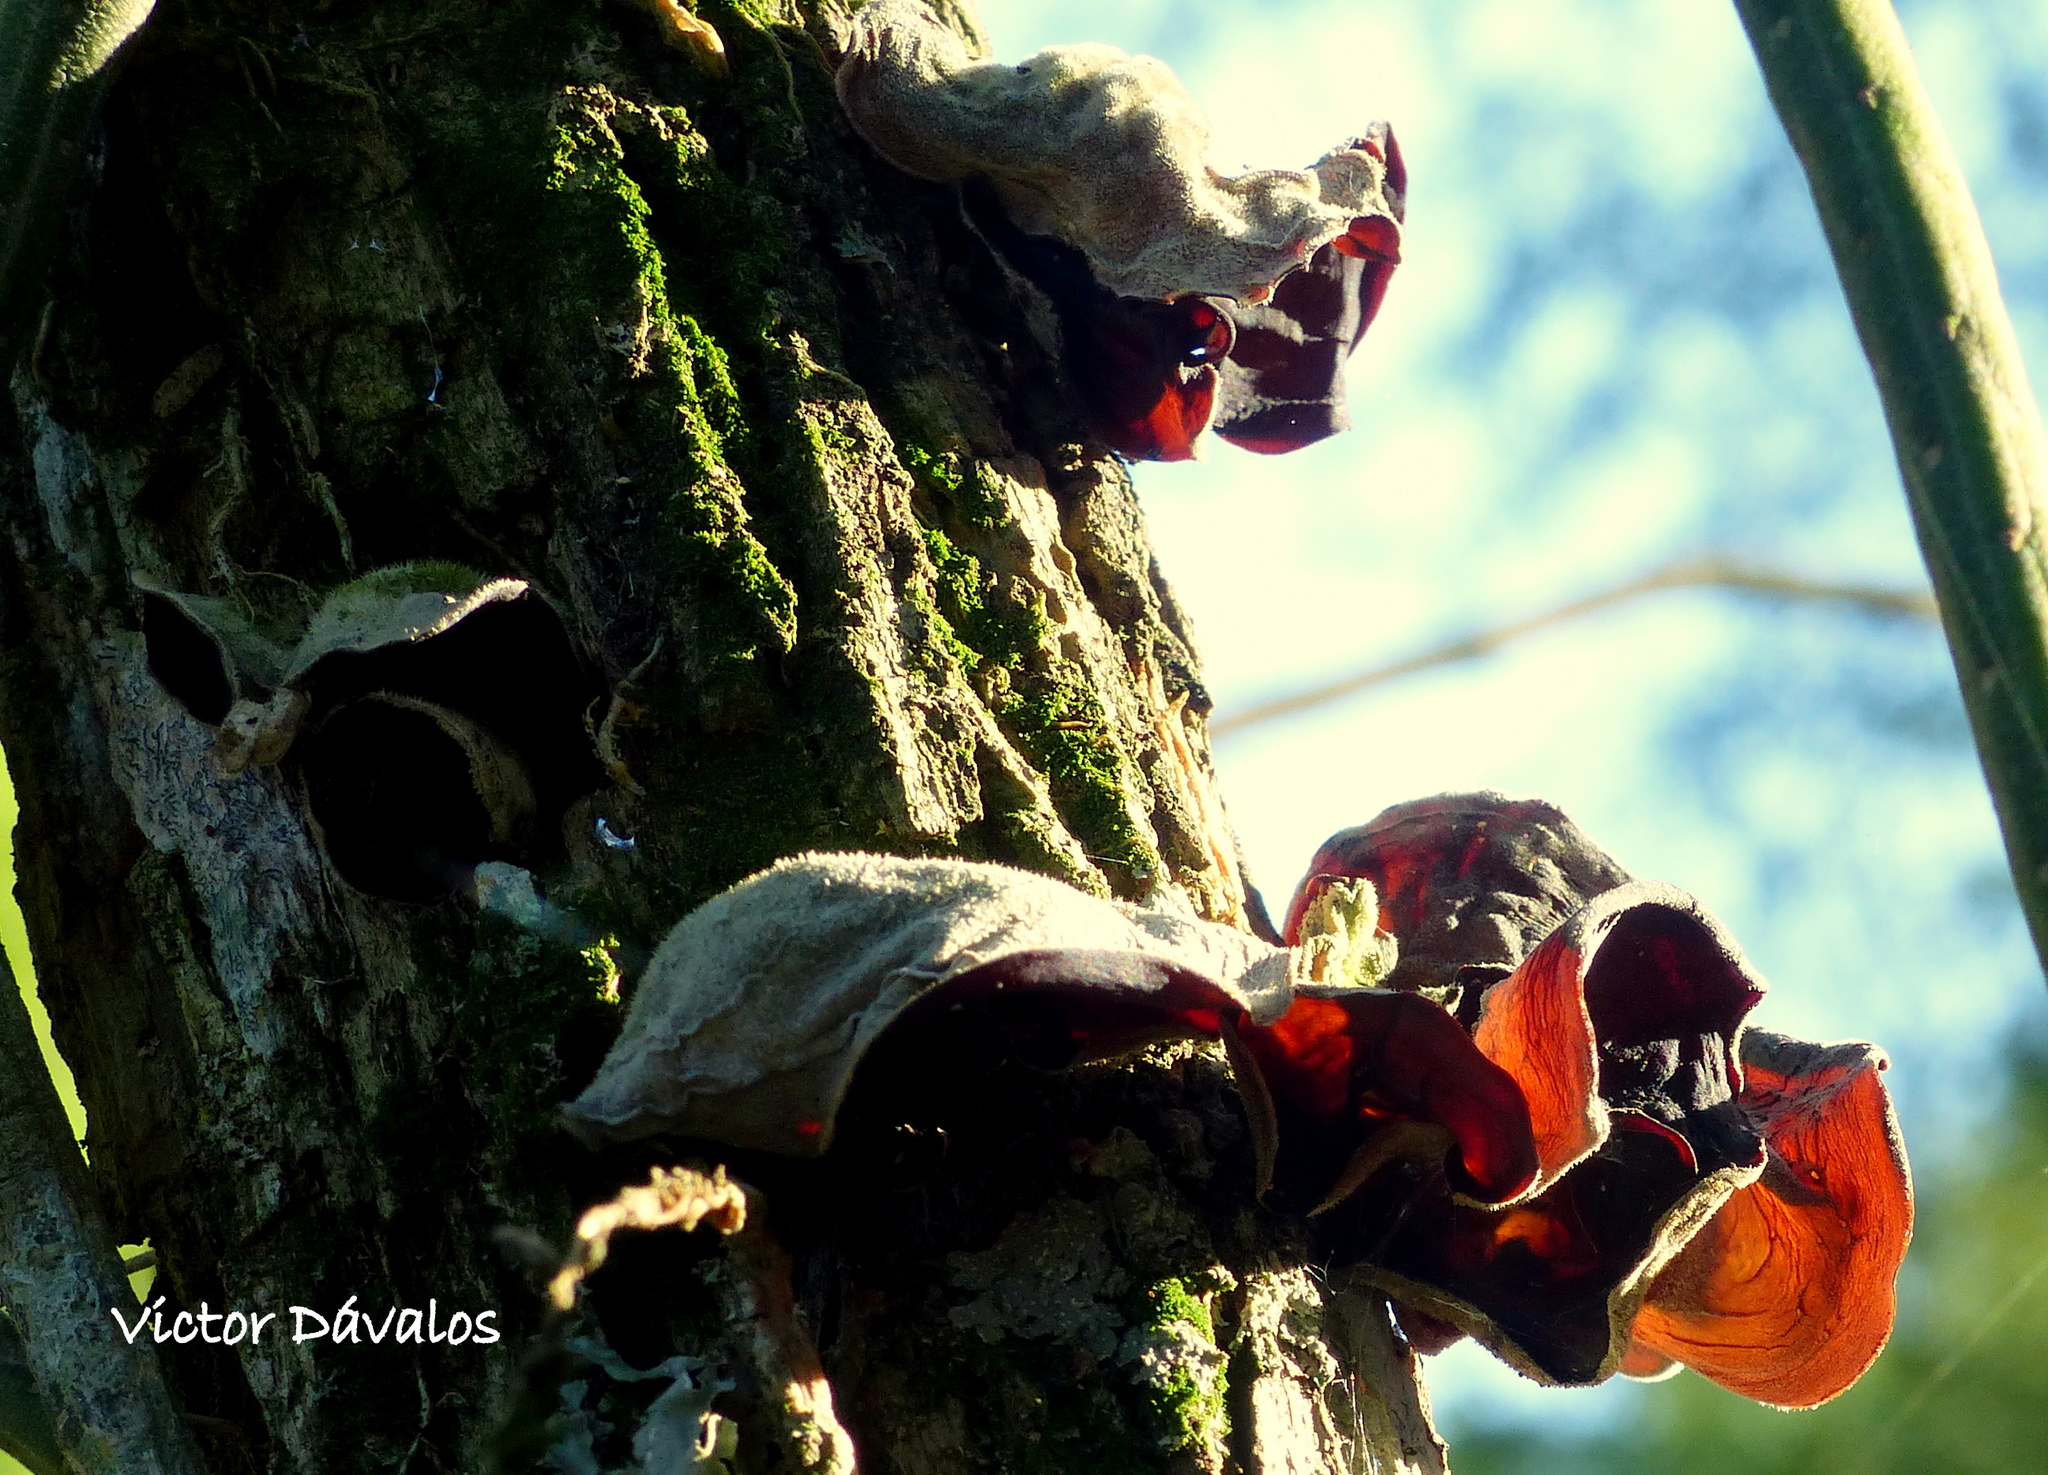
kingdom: Fungi
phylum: Basidiomycota
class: Agaricomycetes
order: Auriculariales
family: Auriculariaceae
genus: Auricularia
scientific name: Auricularia fuscosuccinea
